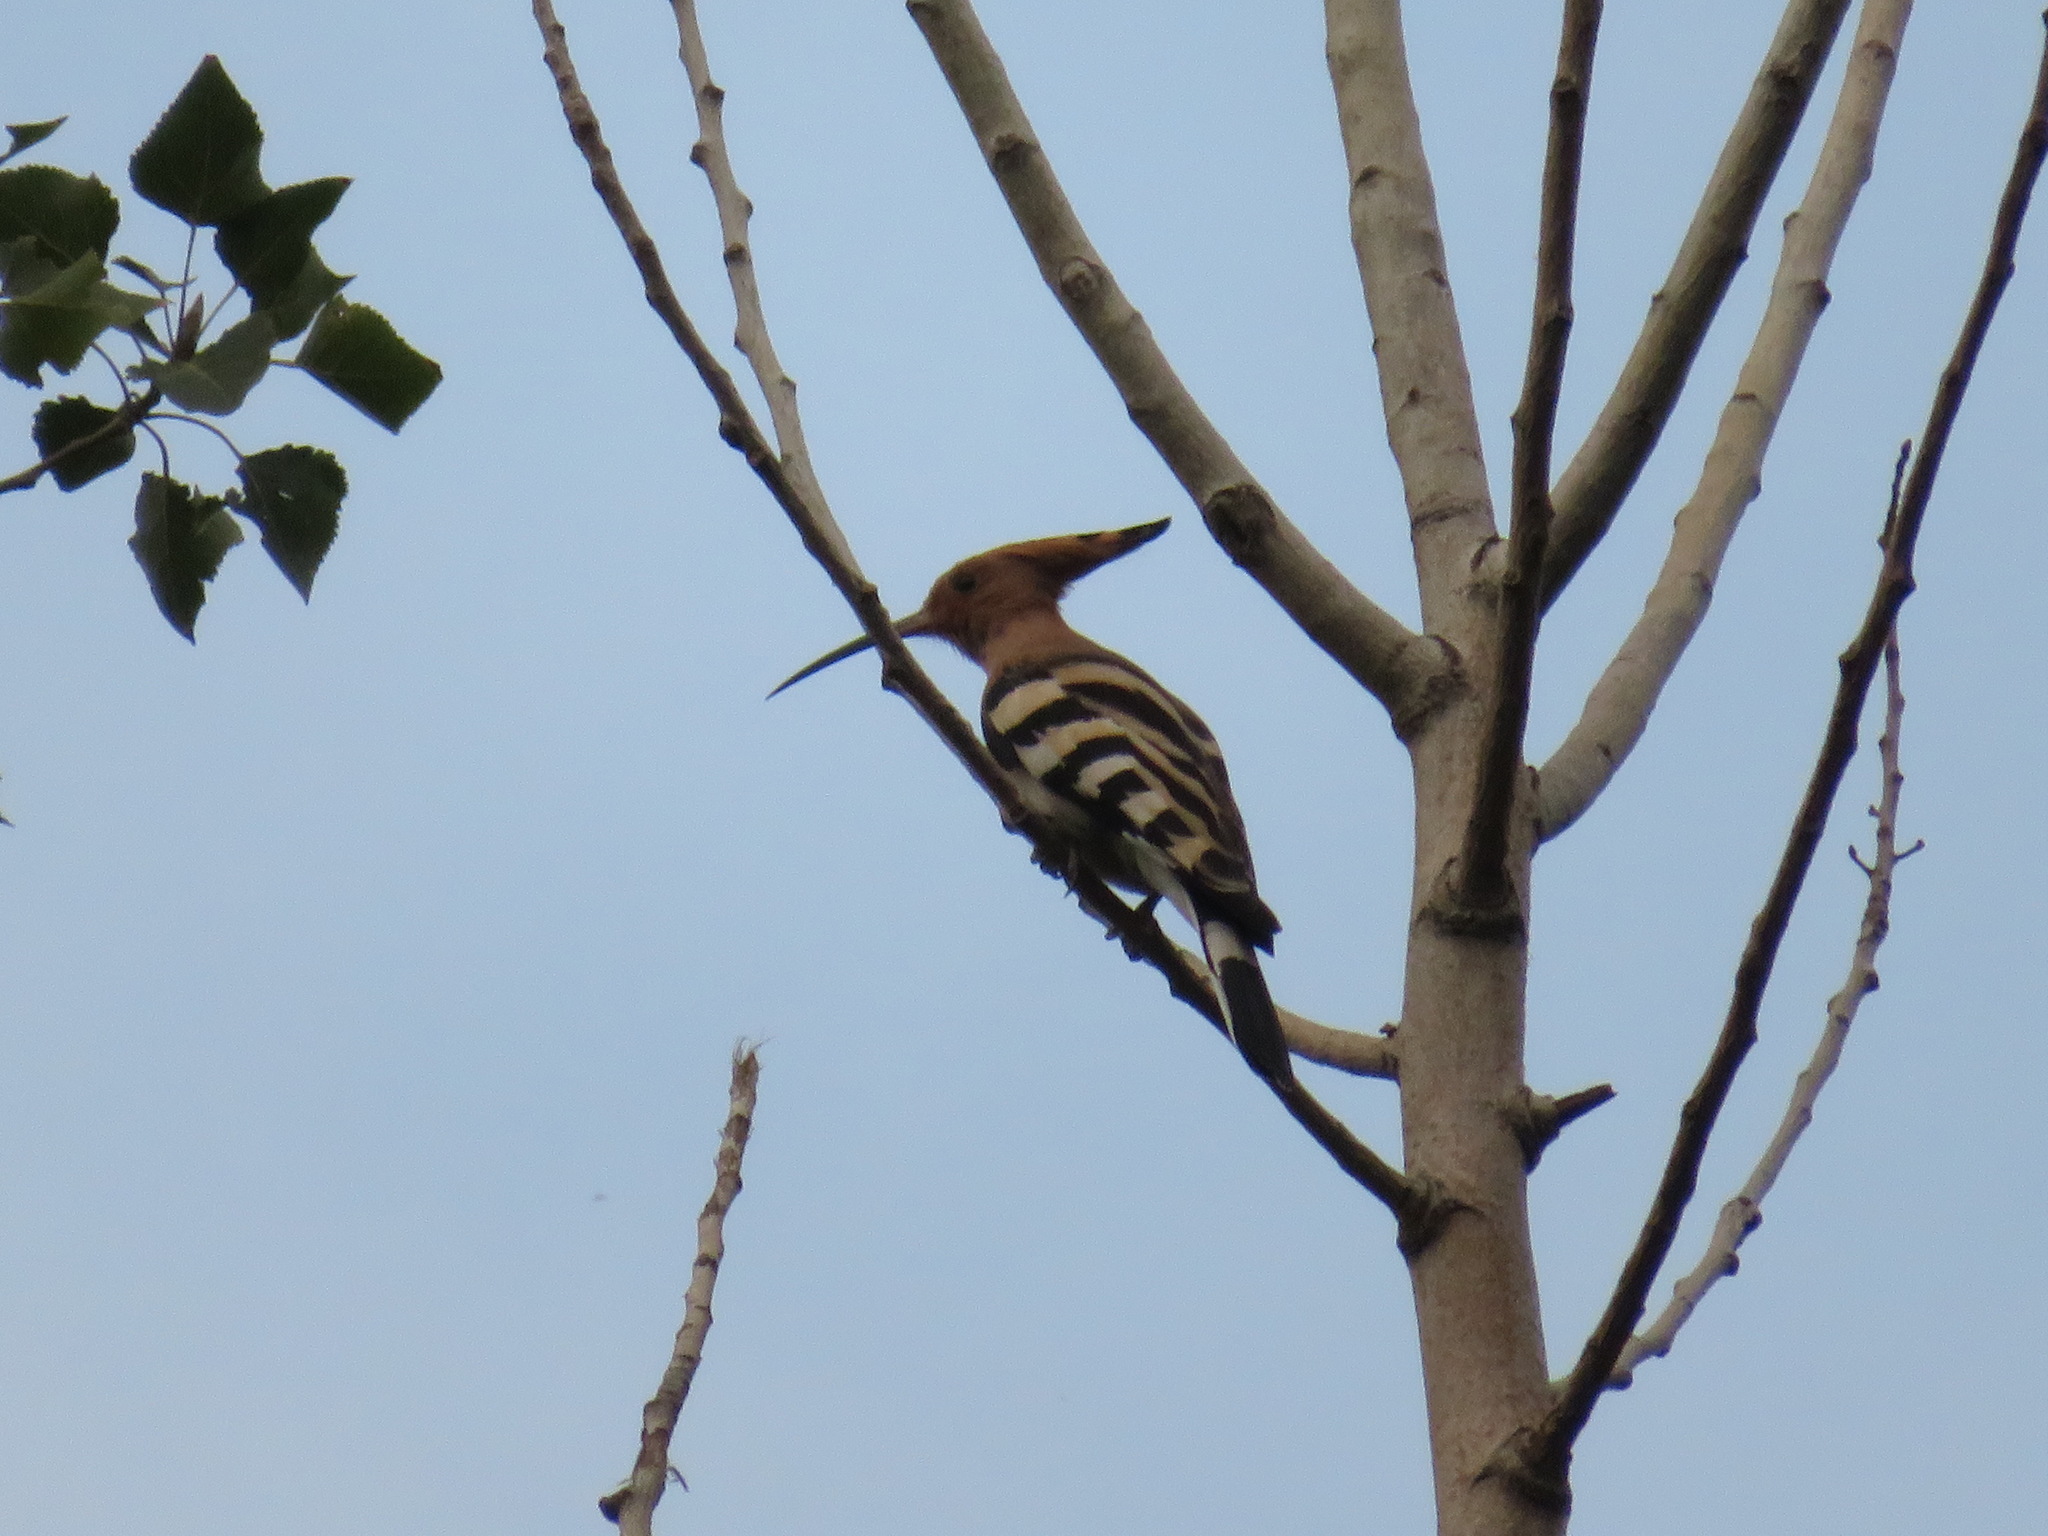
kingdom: Animalia
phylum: Chordata
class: Aves
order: Bucerotiformes
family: Upupidae
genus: Upupa
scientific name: Upupa epops
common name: Eurasian hoopoe
